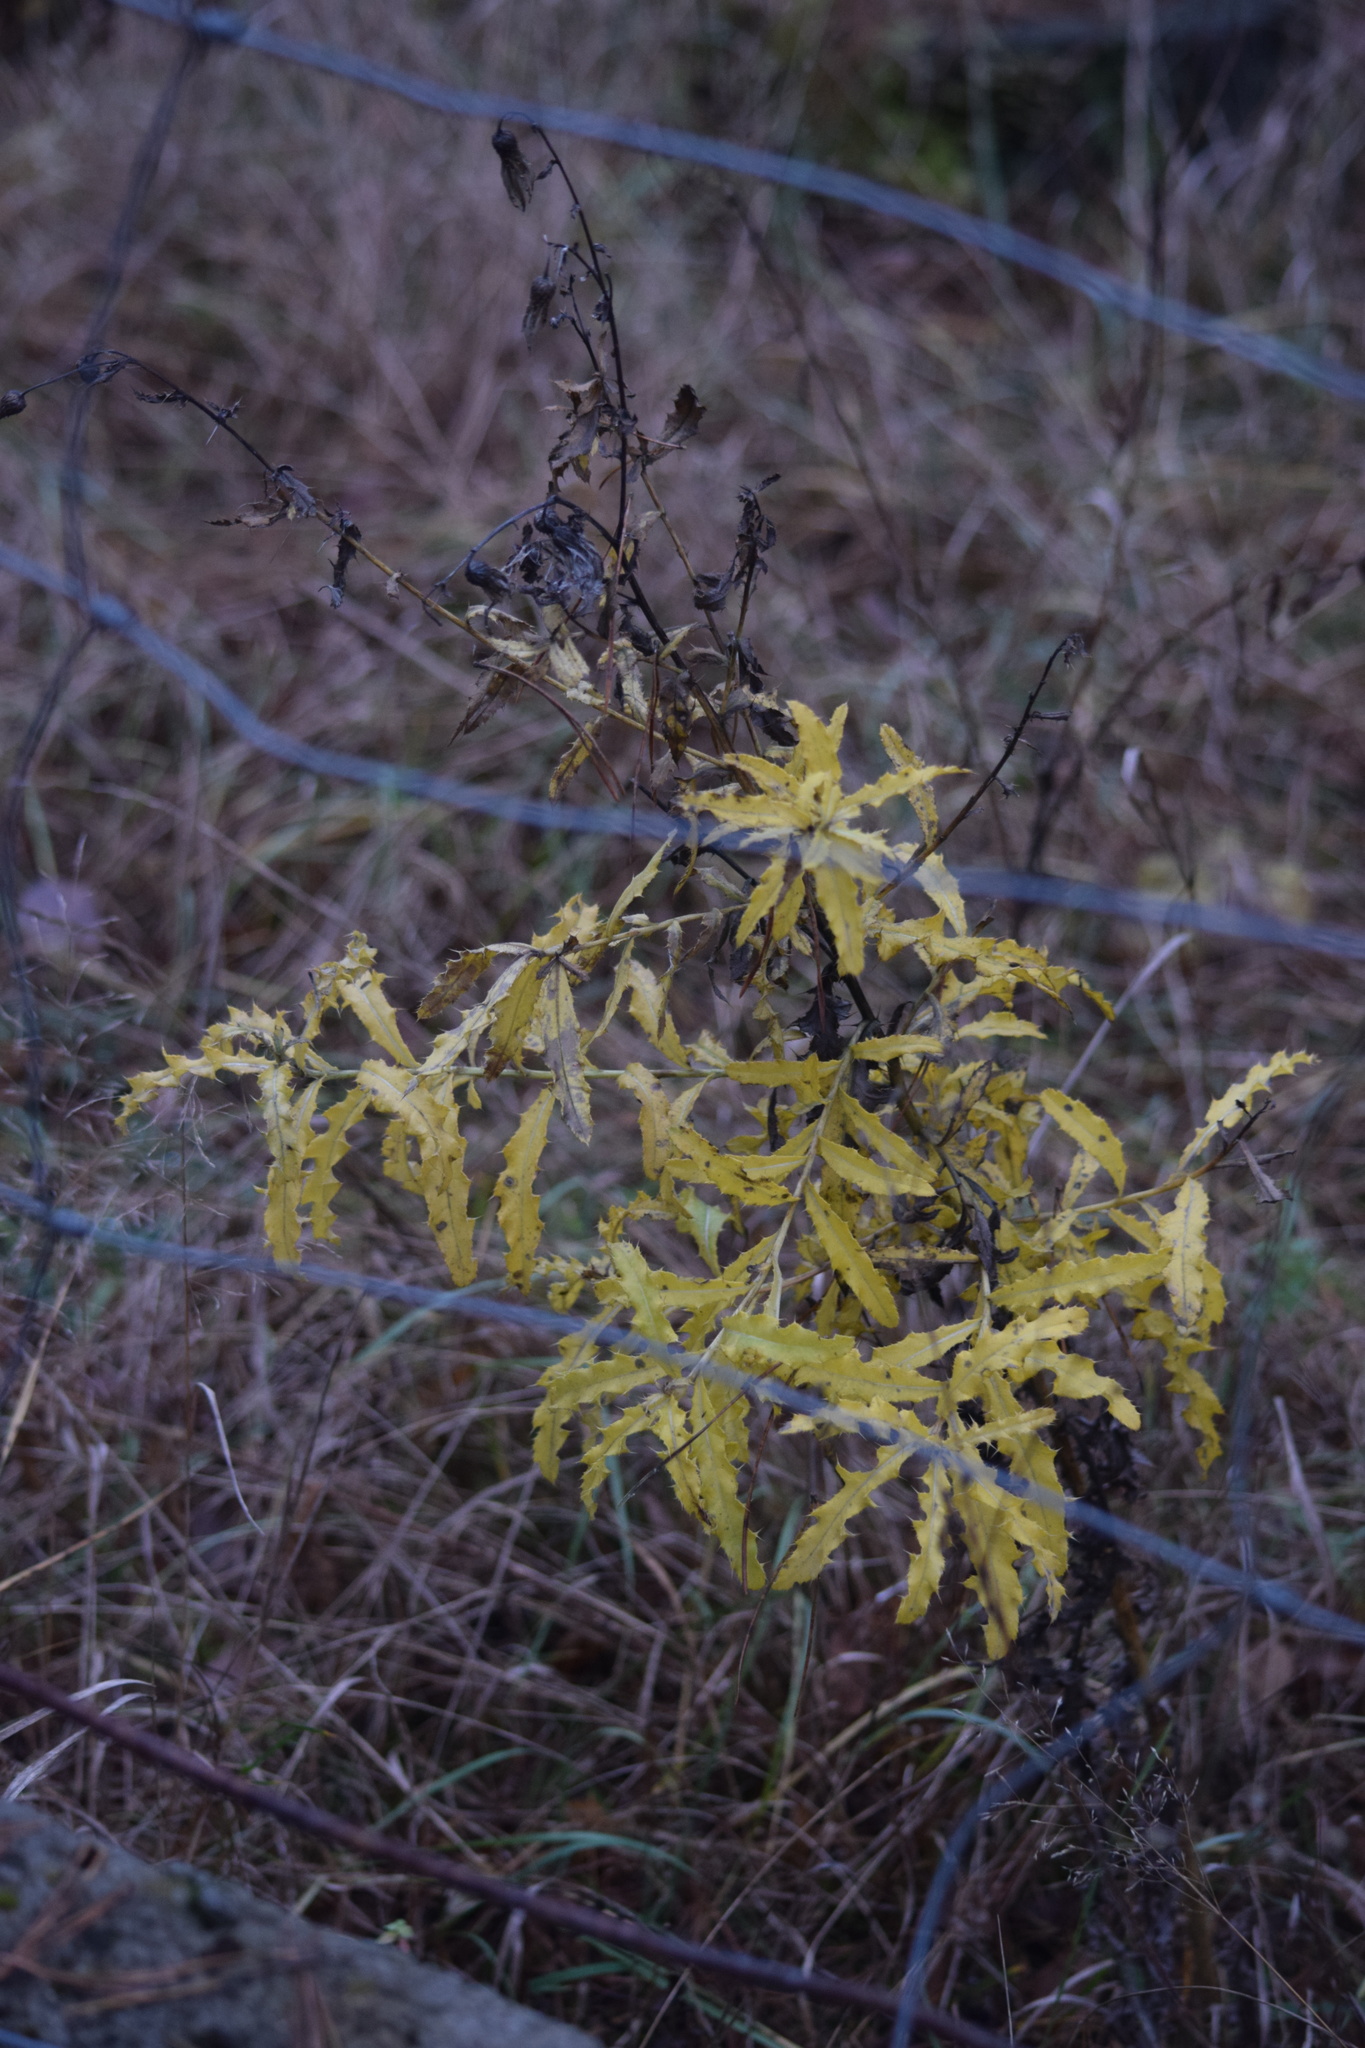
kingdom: Plantae
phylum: Tracheophyta
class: Magnoliopsida
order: Asterales
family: Asteraceae
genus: Cirsium
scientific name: Cirsium arvense
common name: Creeping thistle
